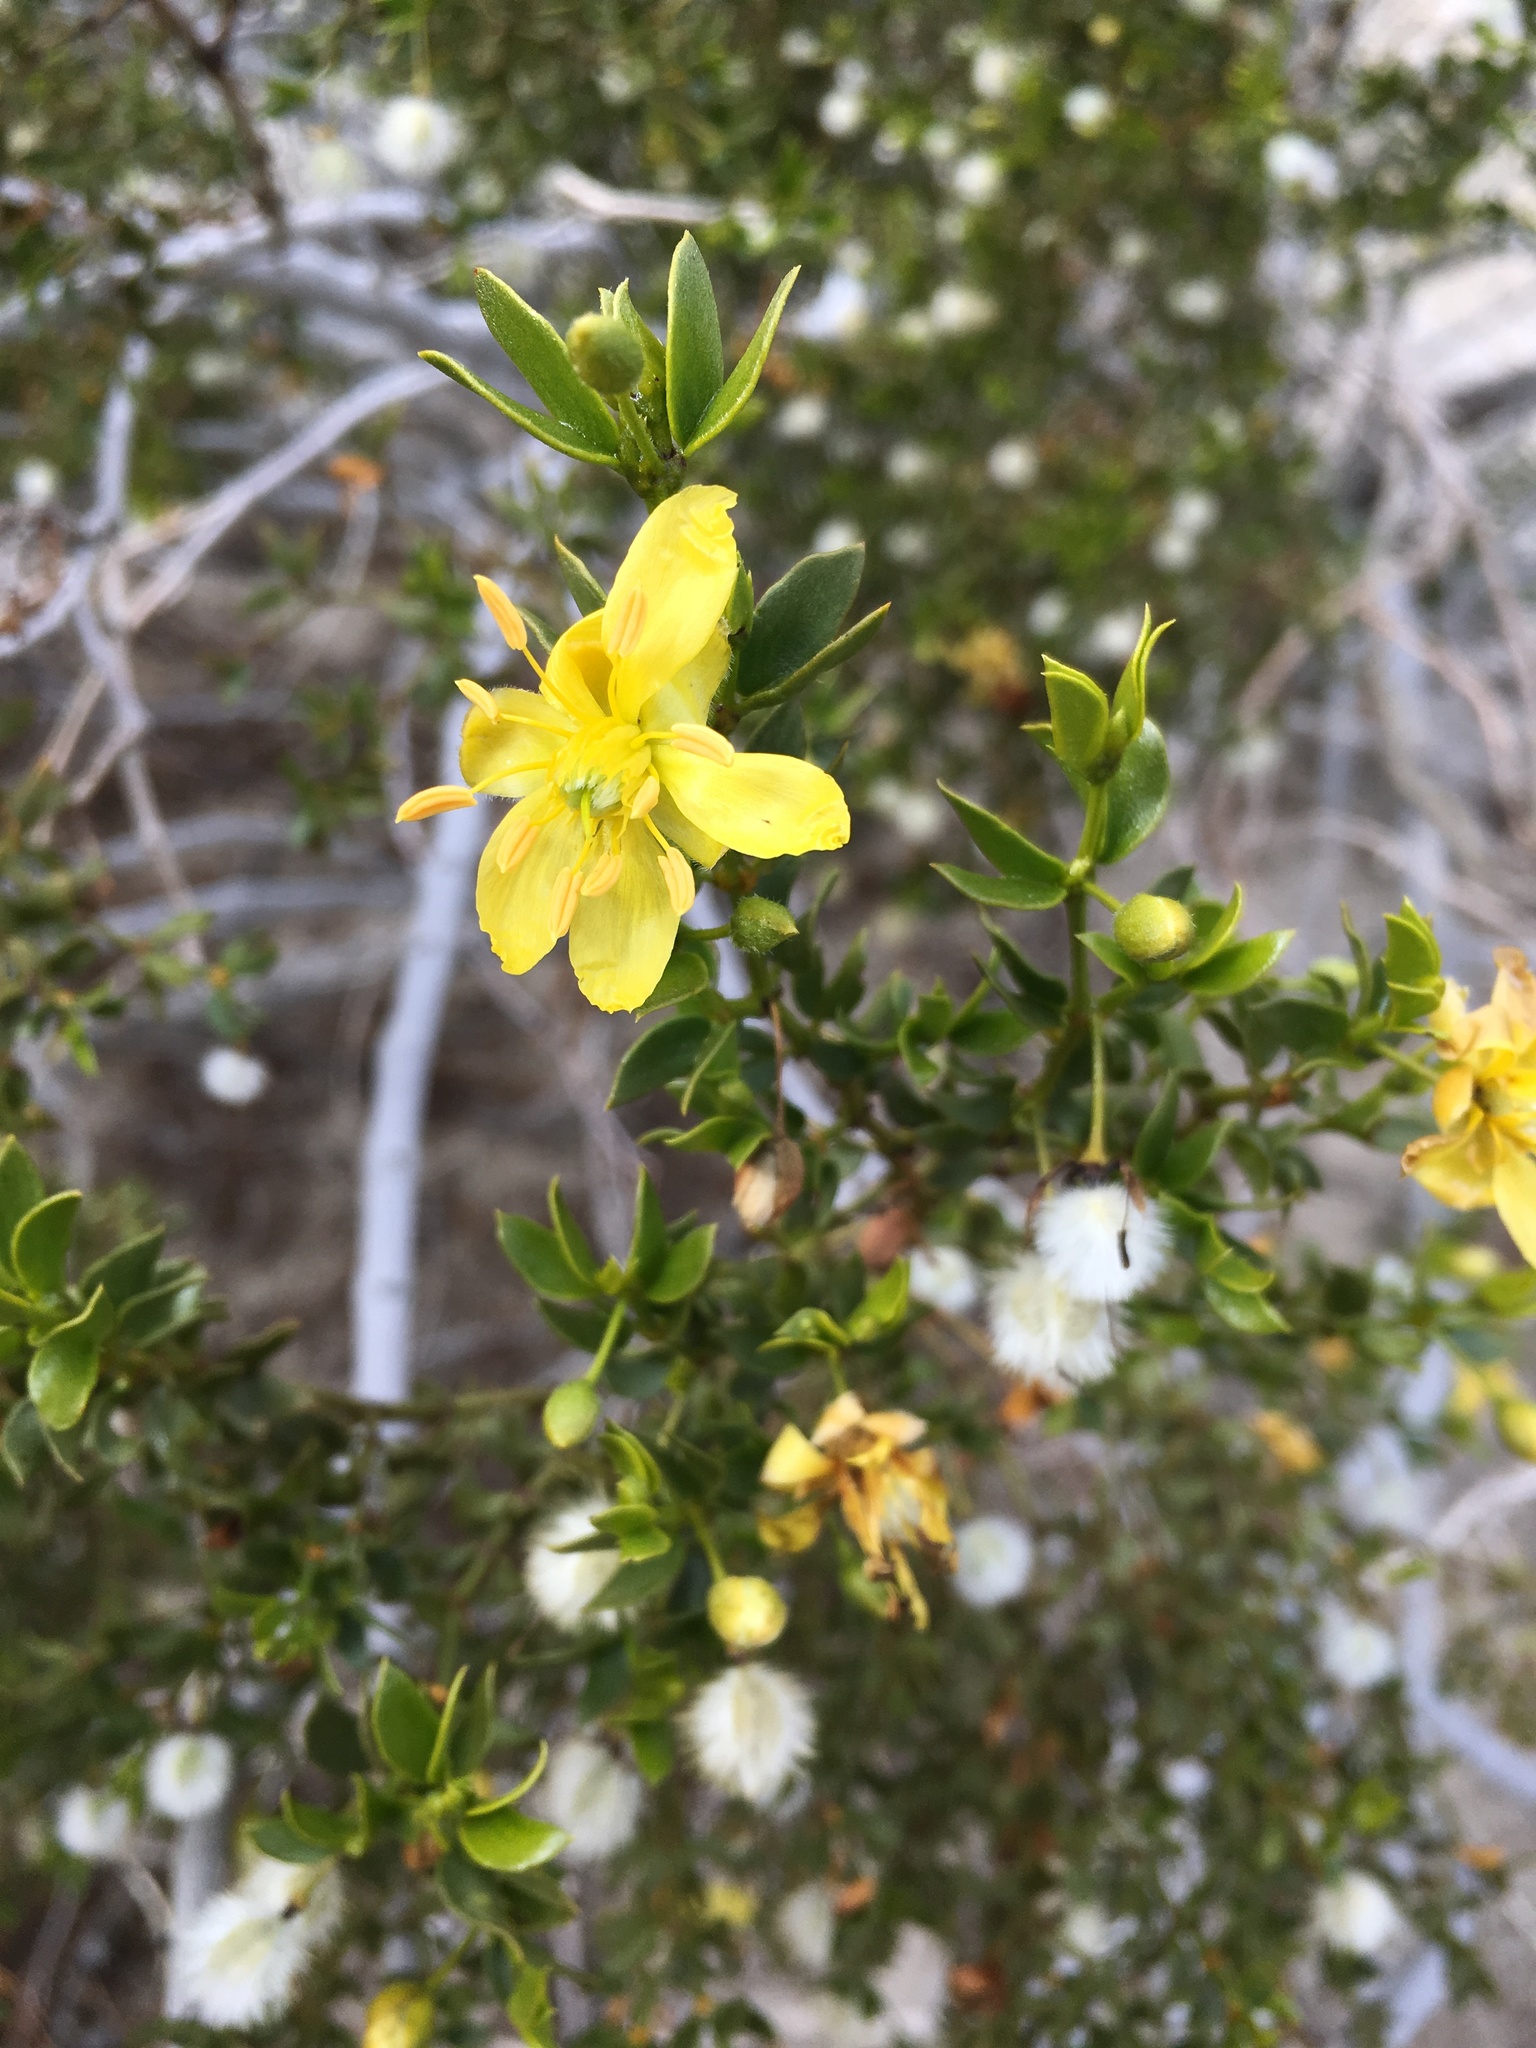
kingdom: Plantae
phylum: Tracheophyta
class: Magnoliopsida
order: Zygophyllales
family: Zygophyllaceae
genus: Larrea
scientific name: Larrea tridentata
